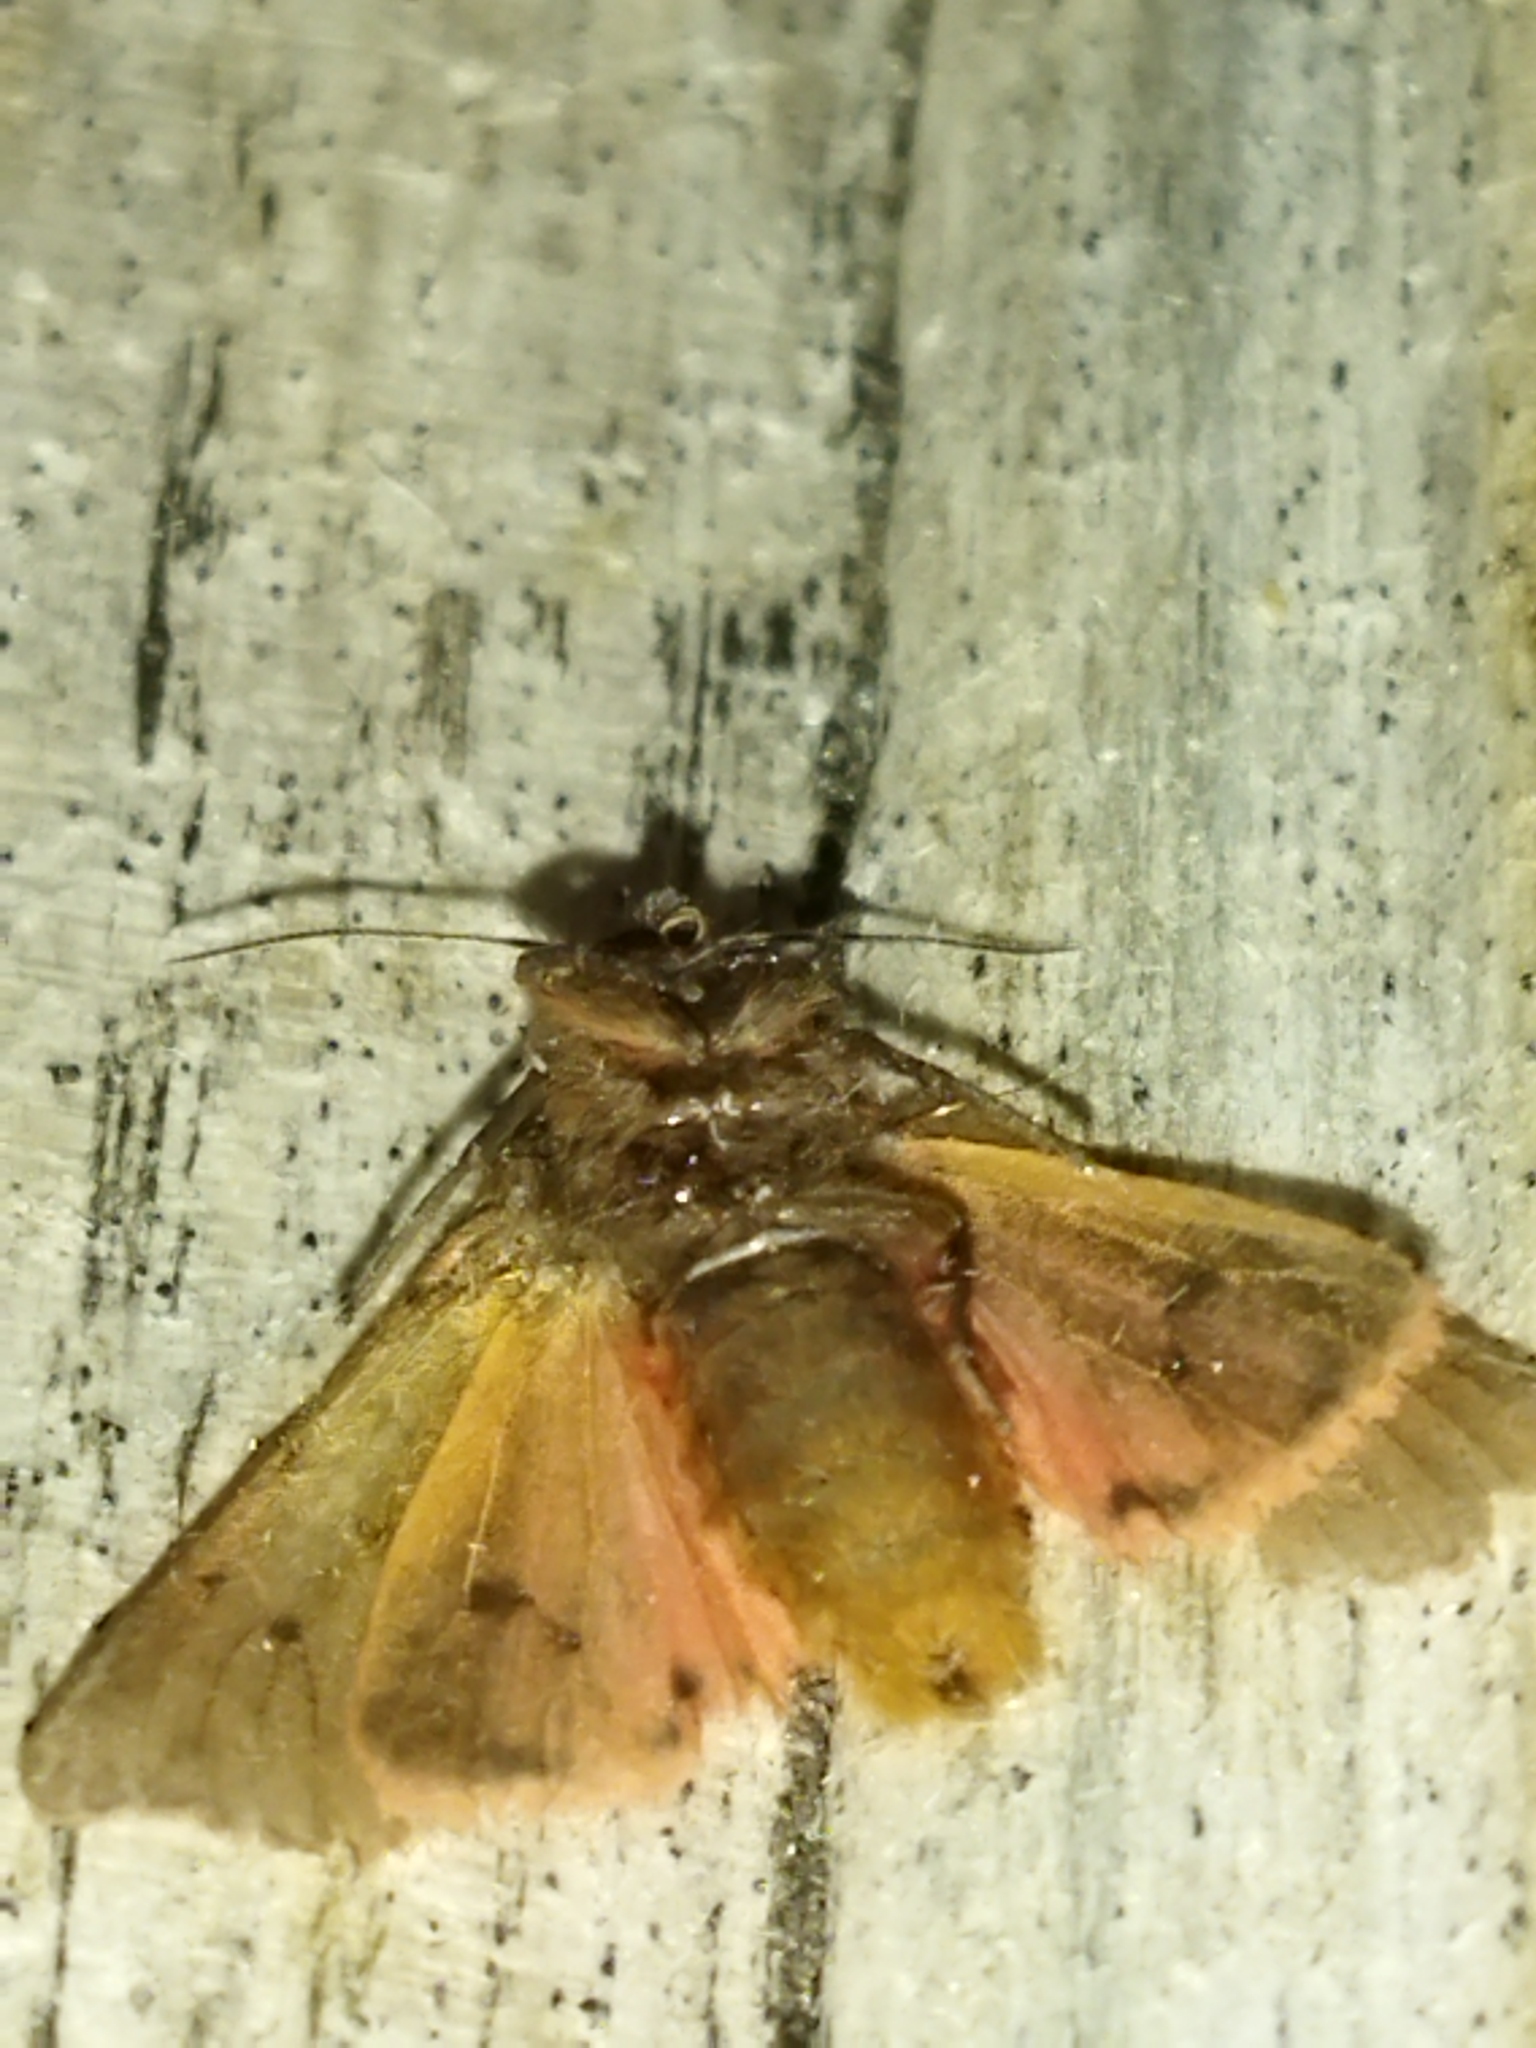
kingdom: Animalia
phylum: Arthropoda
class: Insecta
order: Lepidoptera
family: Erebidae
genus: Phragmatobia
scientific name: Phragmatobia fuliginosa
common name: Ruby tiger
